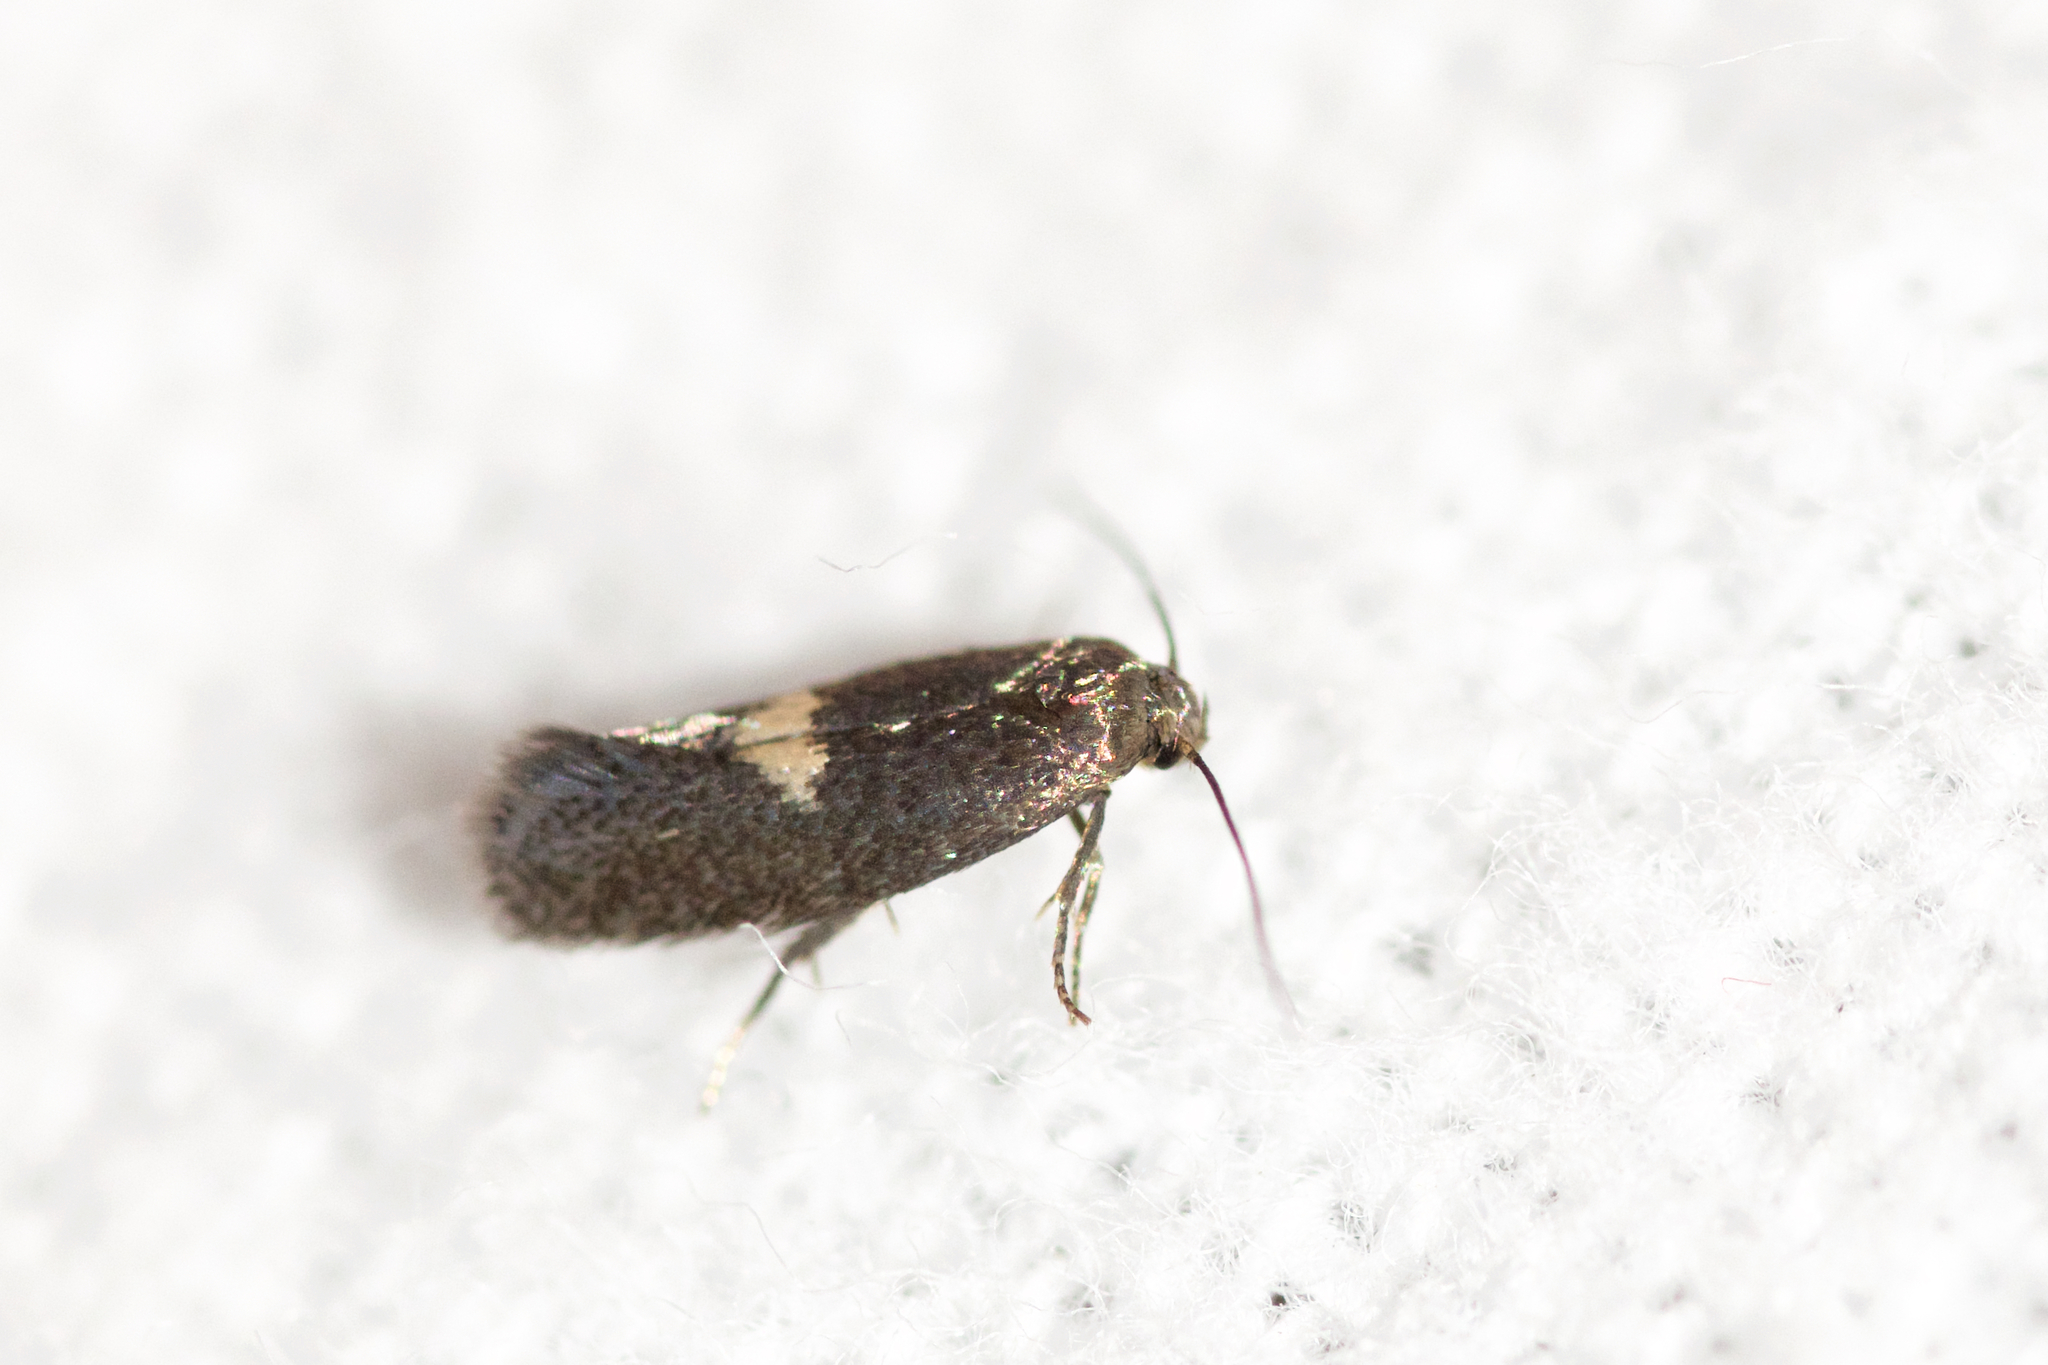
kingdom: Animalia
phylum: Arthropoda
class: Insecta
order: Lepidoptera
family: Elachistidae
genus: Perittia
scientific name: Perittia herrichiella
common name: Moth
